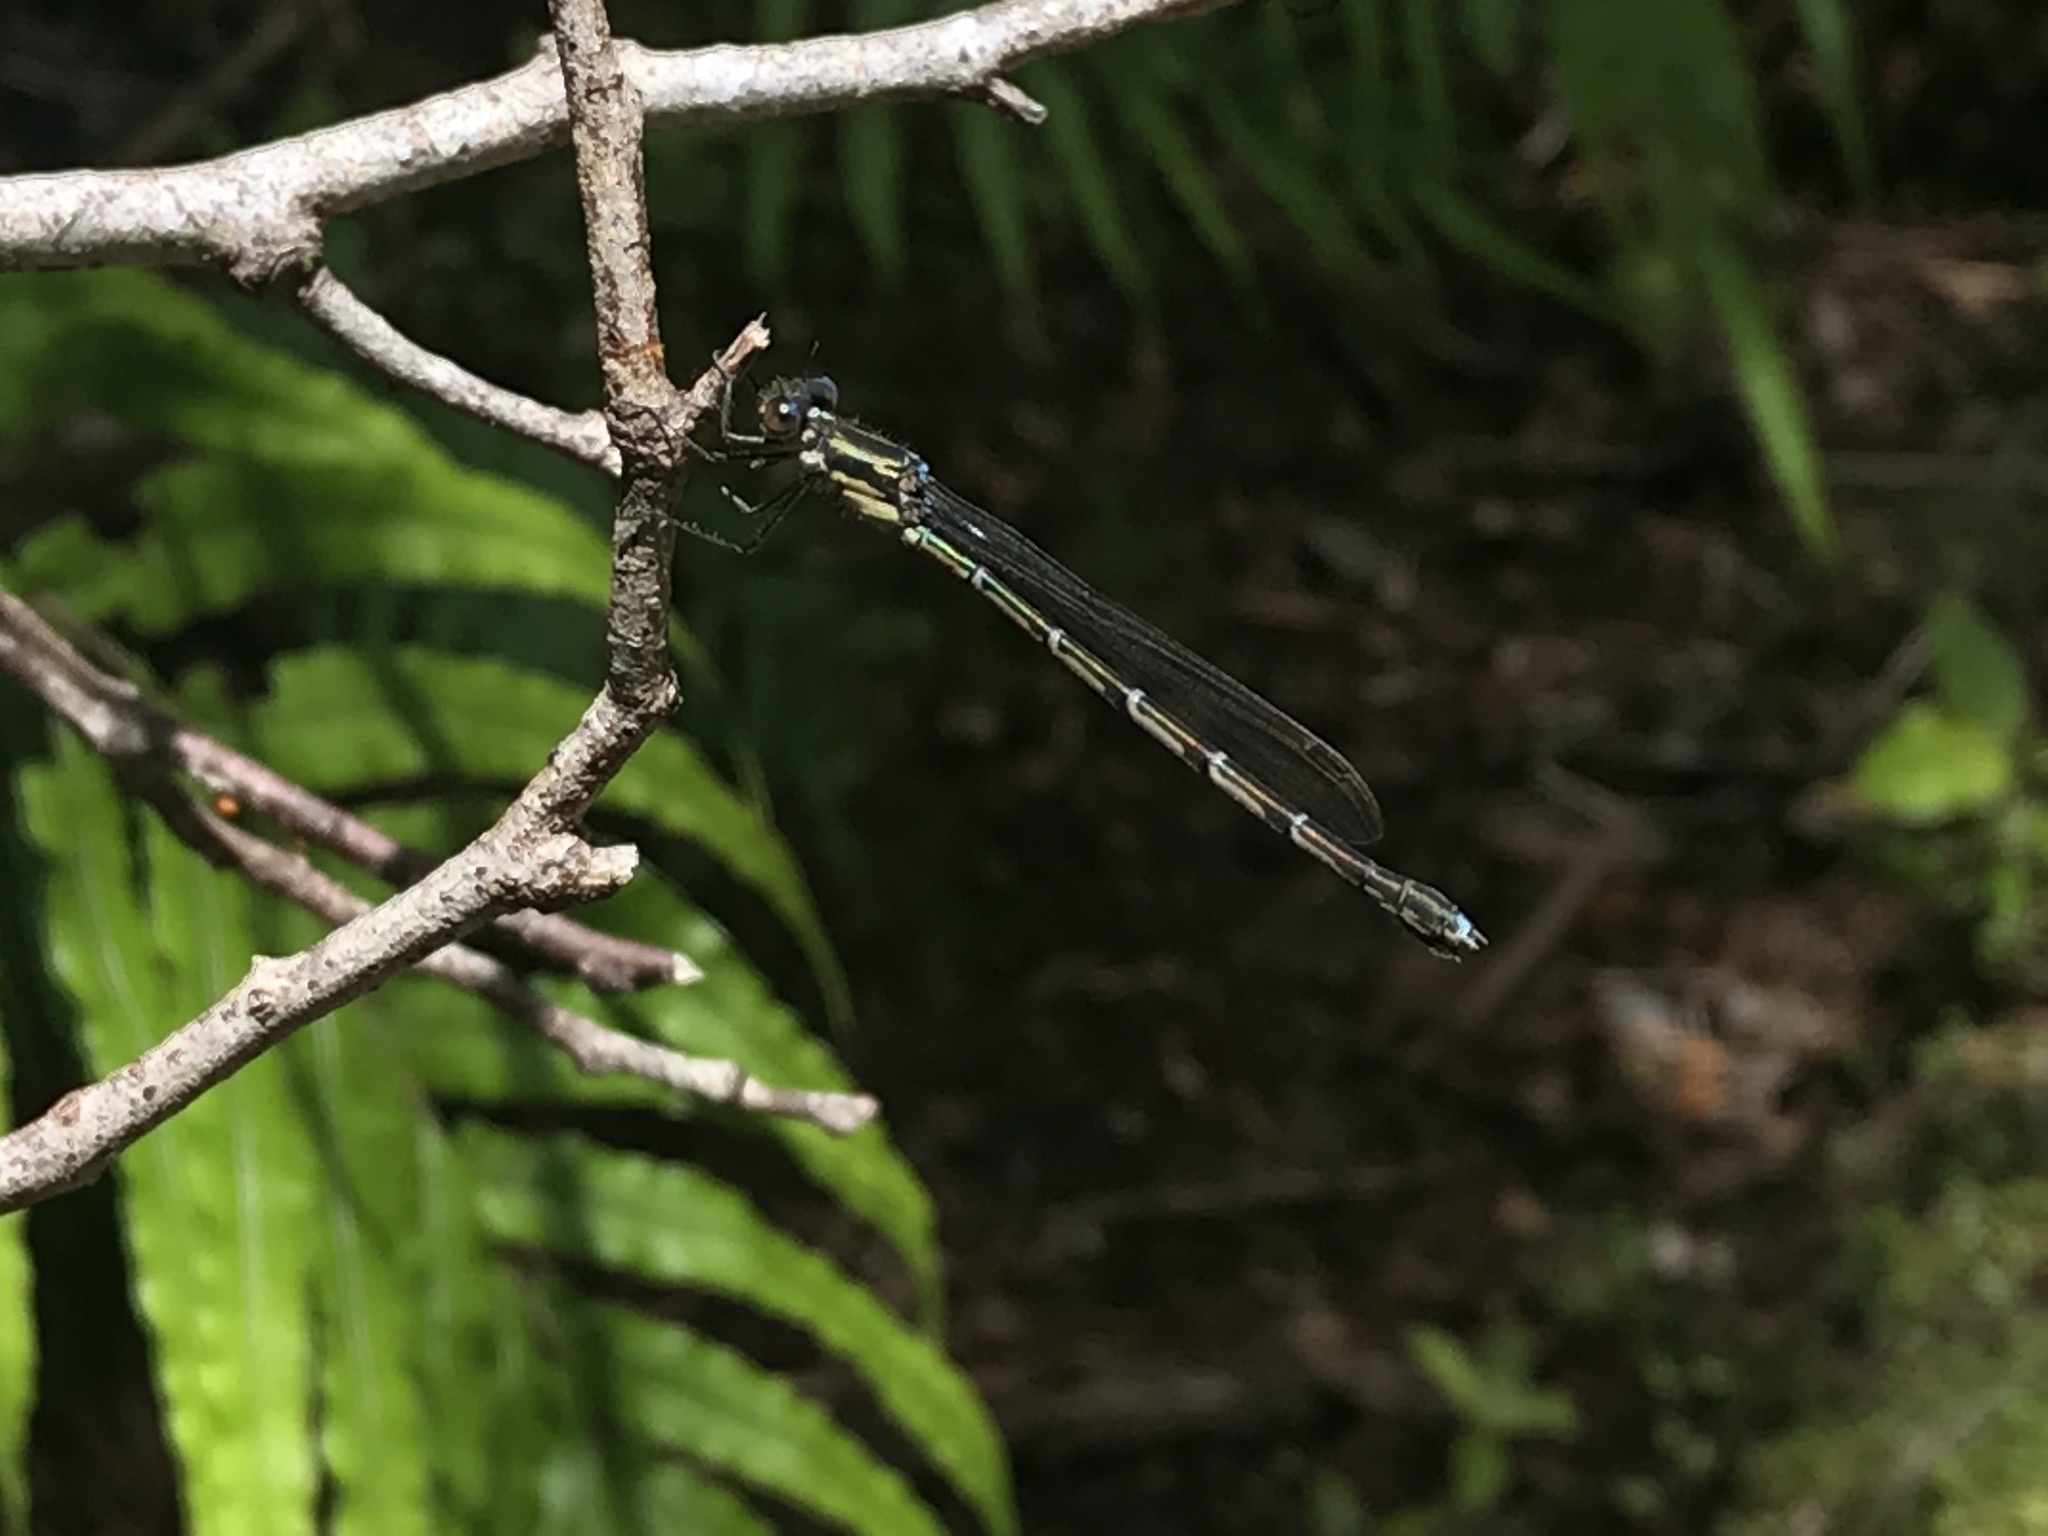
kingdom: Animalia
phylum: Arthropoda
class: Insecta
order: Odonata
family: Lestidae
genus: Austrolestes
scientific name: Austrolestes colensonis
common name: Blue damselfly
